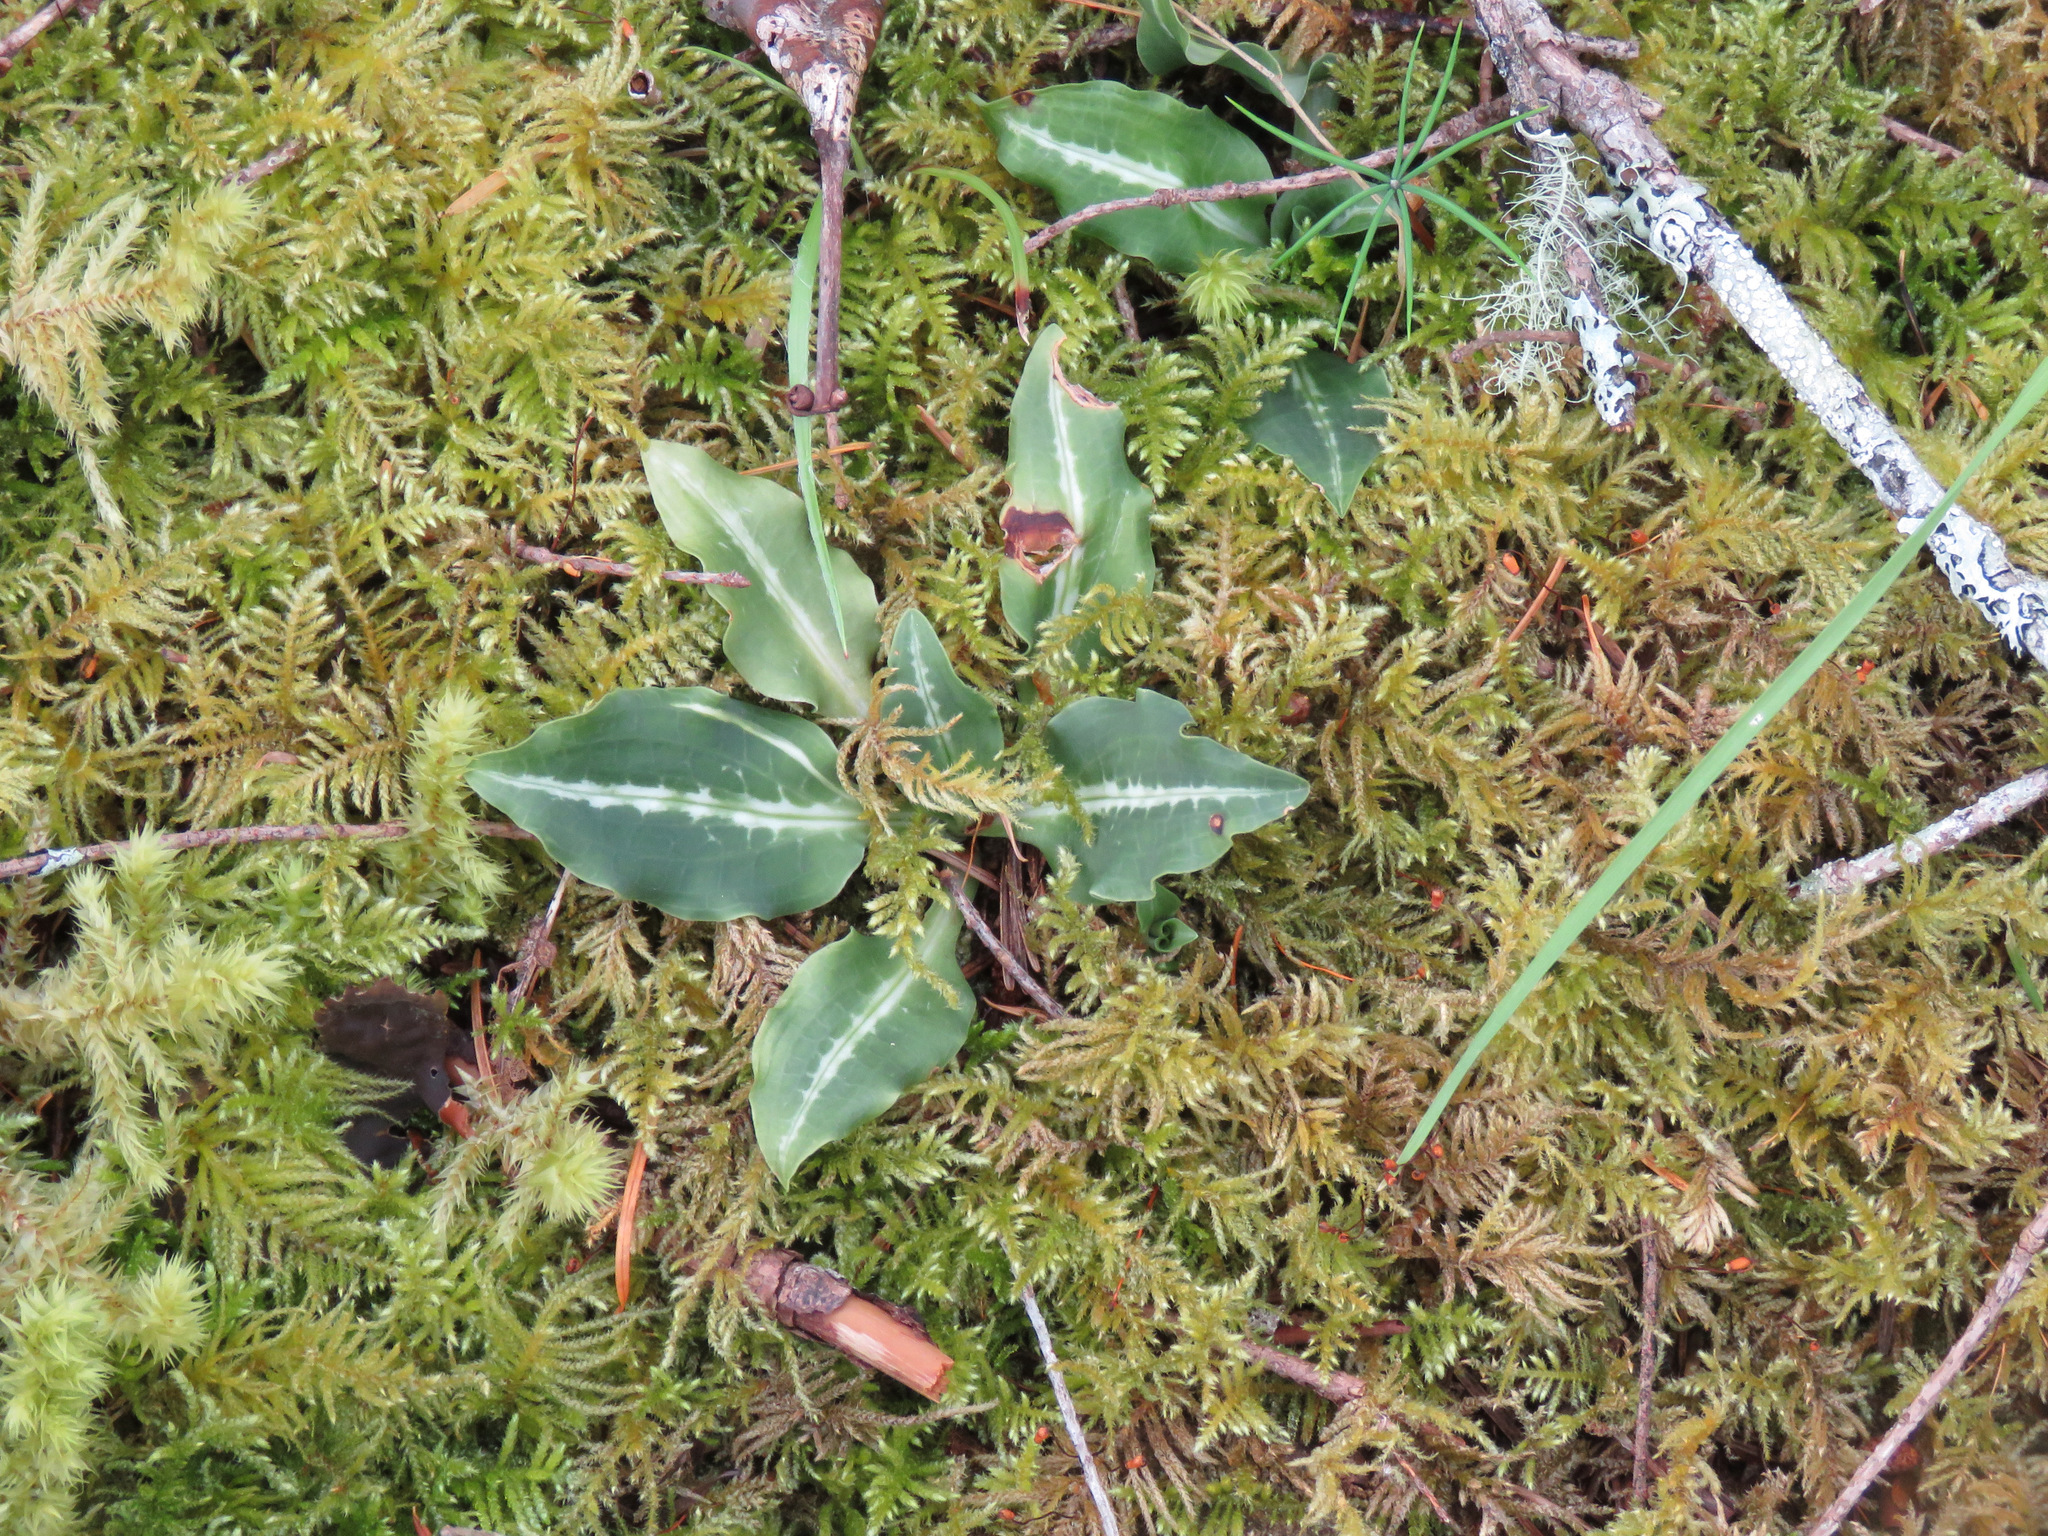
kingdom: Plantae
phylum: Tracheophyta
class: Liliopsida
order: Asparagales
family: Orchidaceae
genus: Goodyera
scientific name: Goodyera oblongifolia
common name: Giant rattlesnake-plantain
